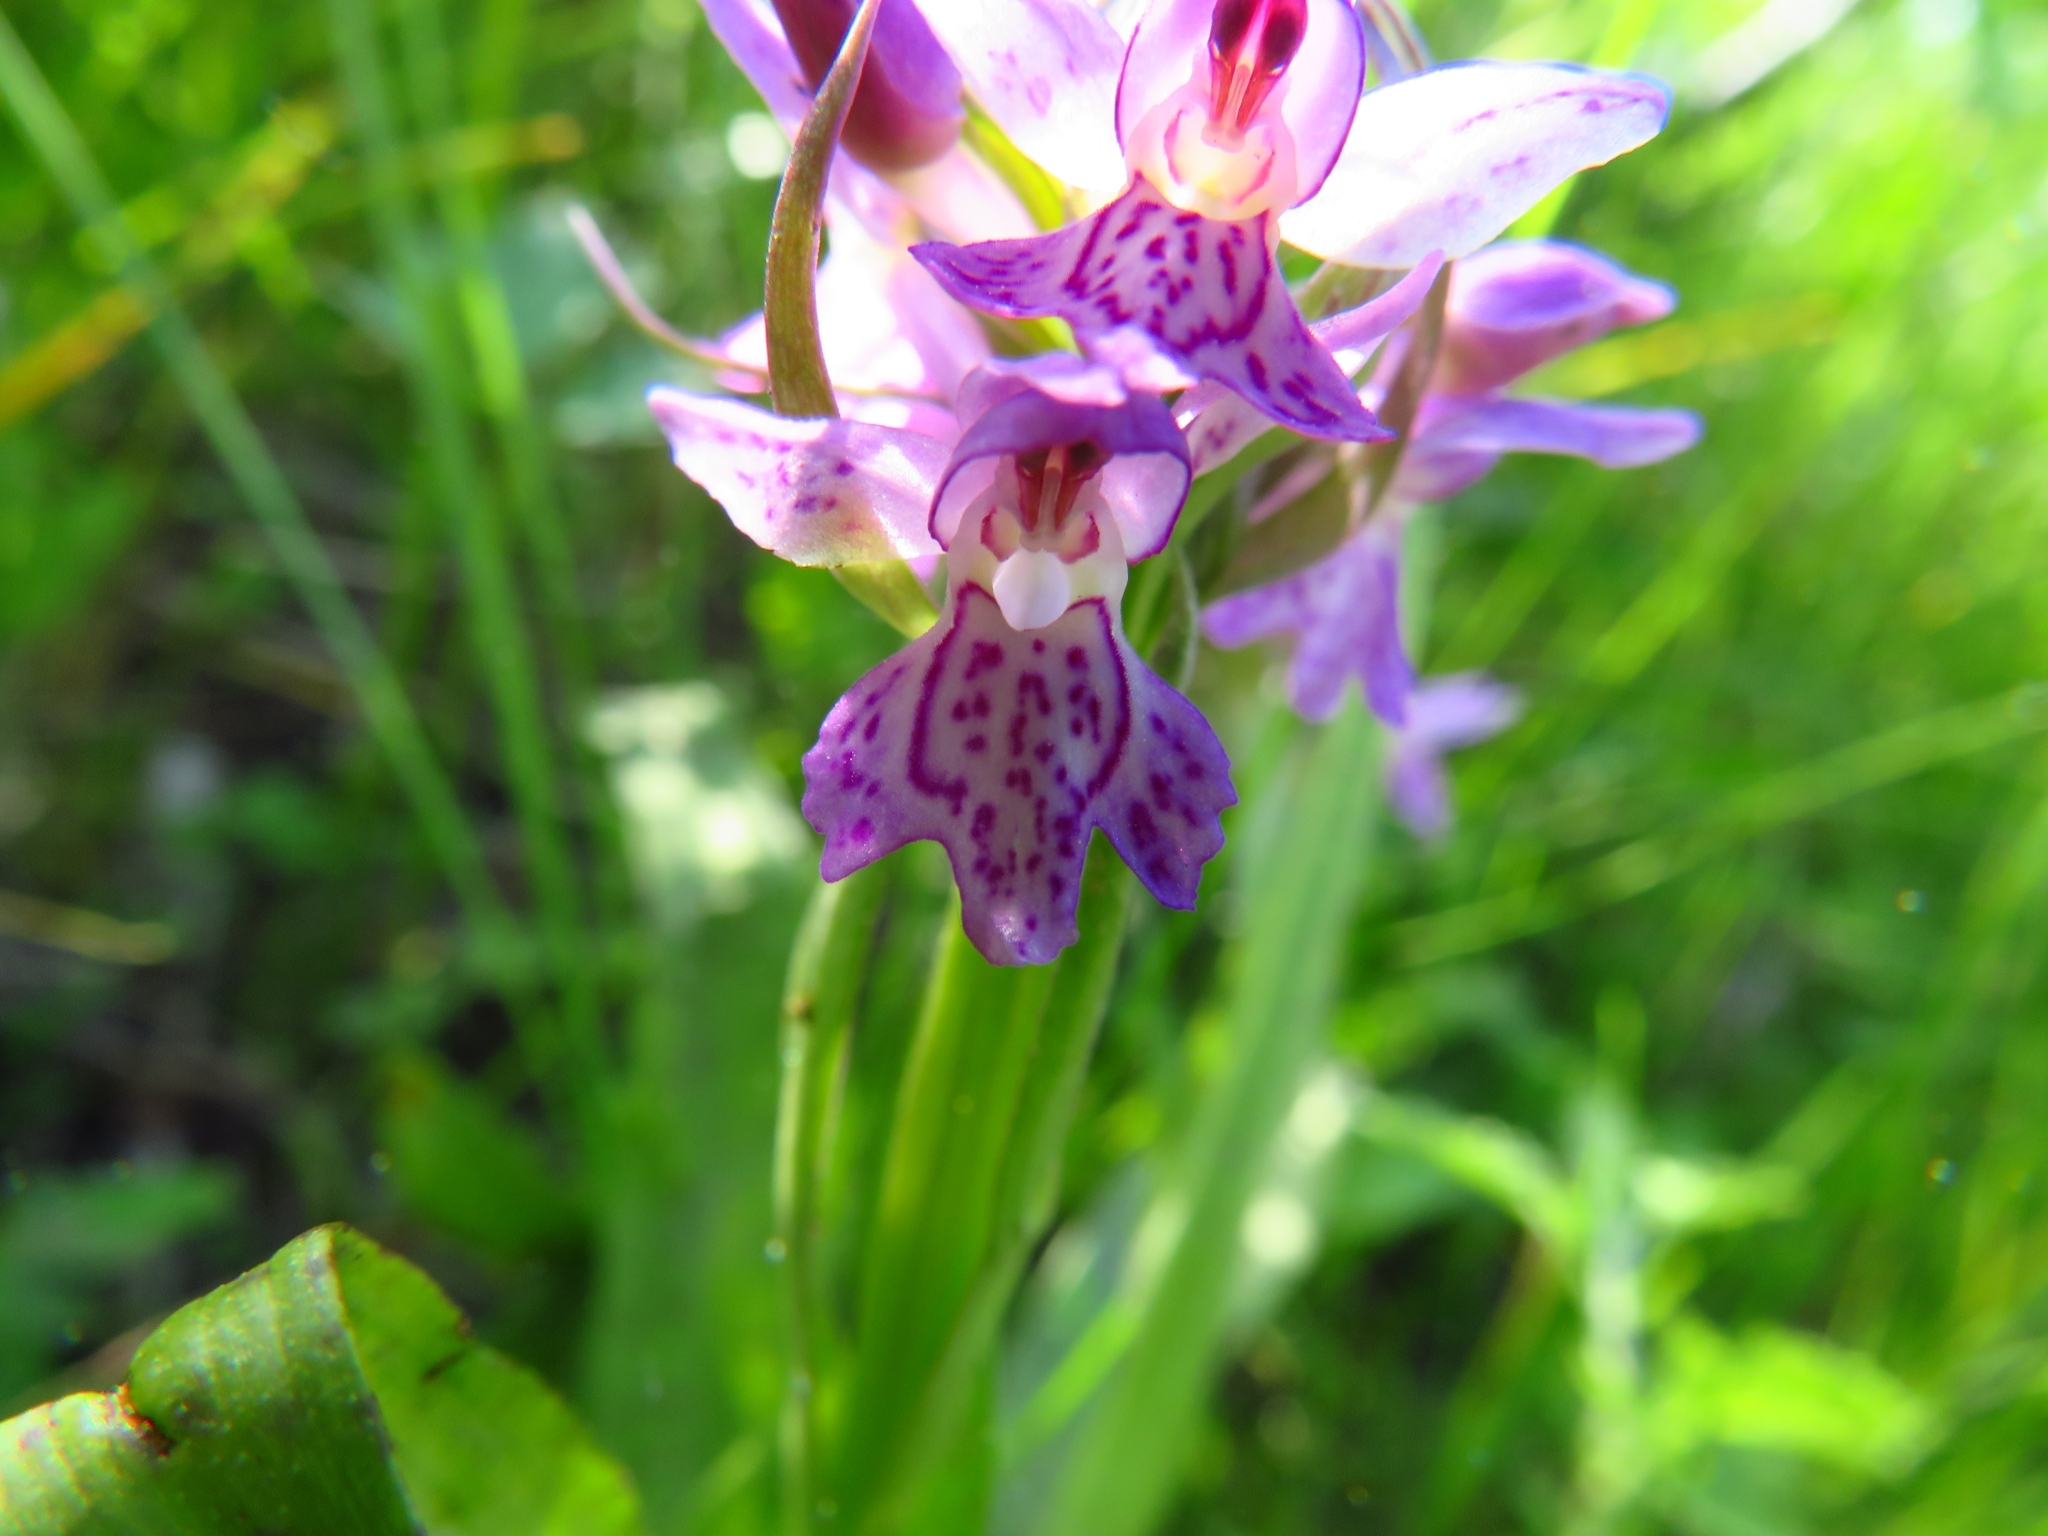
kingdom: Plantae
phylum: Tracheophyta
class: Liliopsida
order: Asparagales
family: Orchidaceae
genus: Dactylorhiza
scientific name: Dactylorhiza majalis
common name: Marsh orchid
